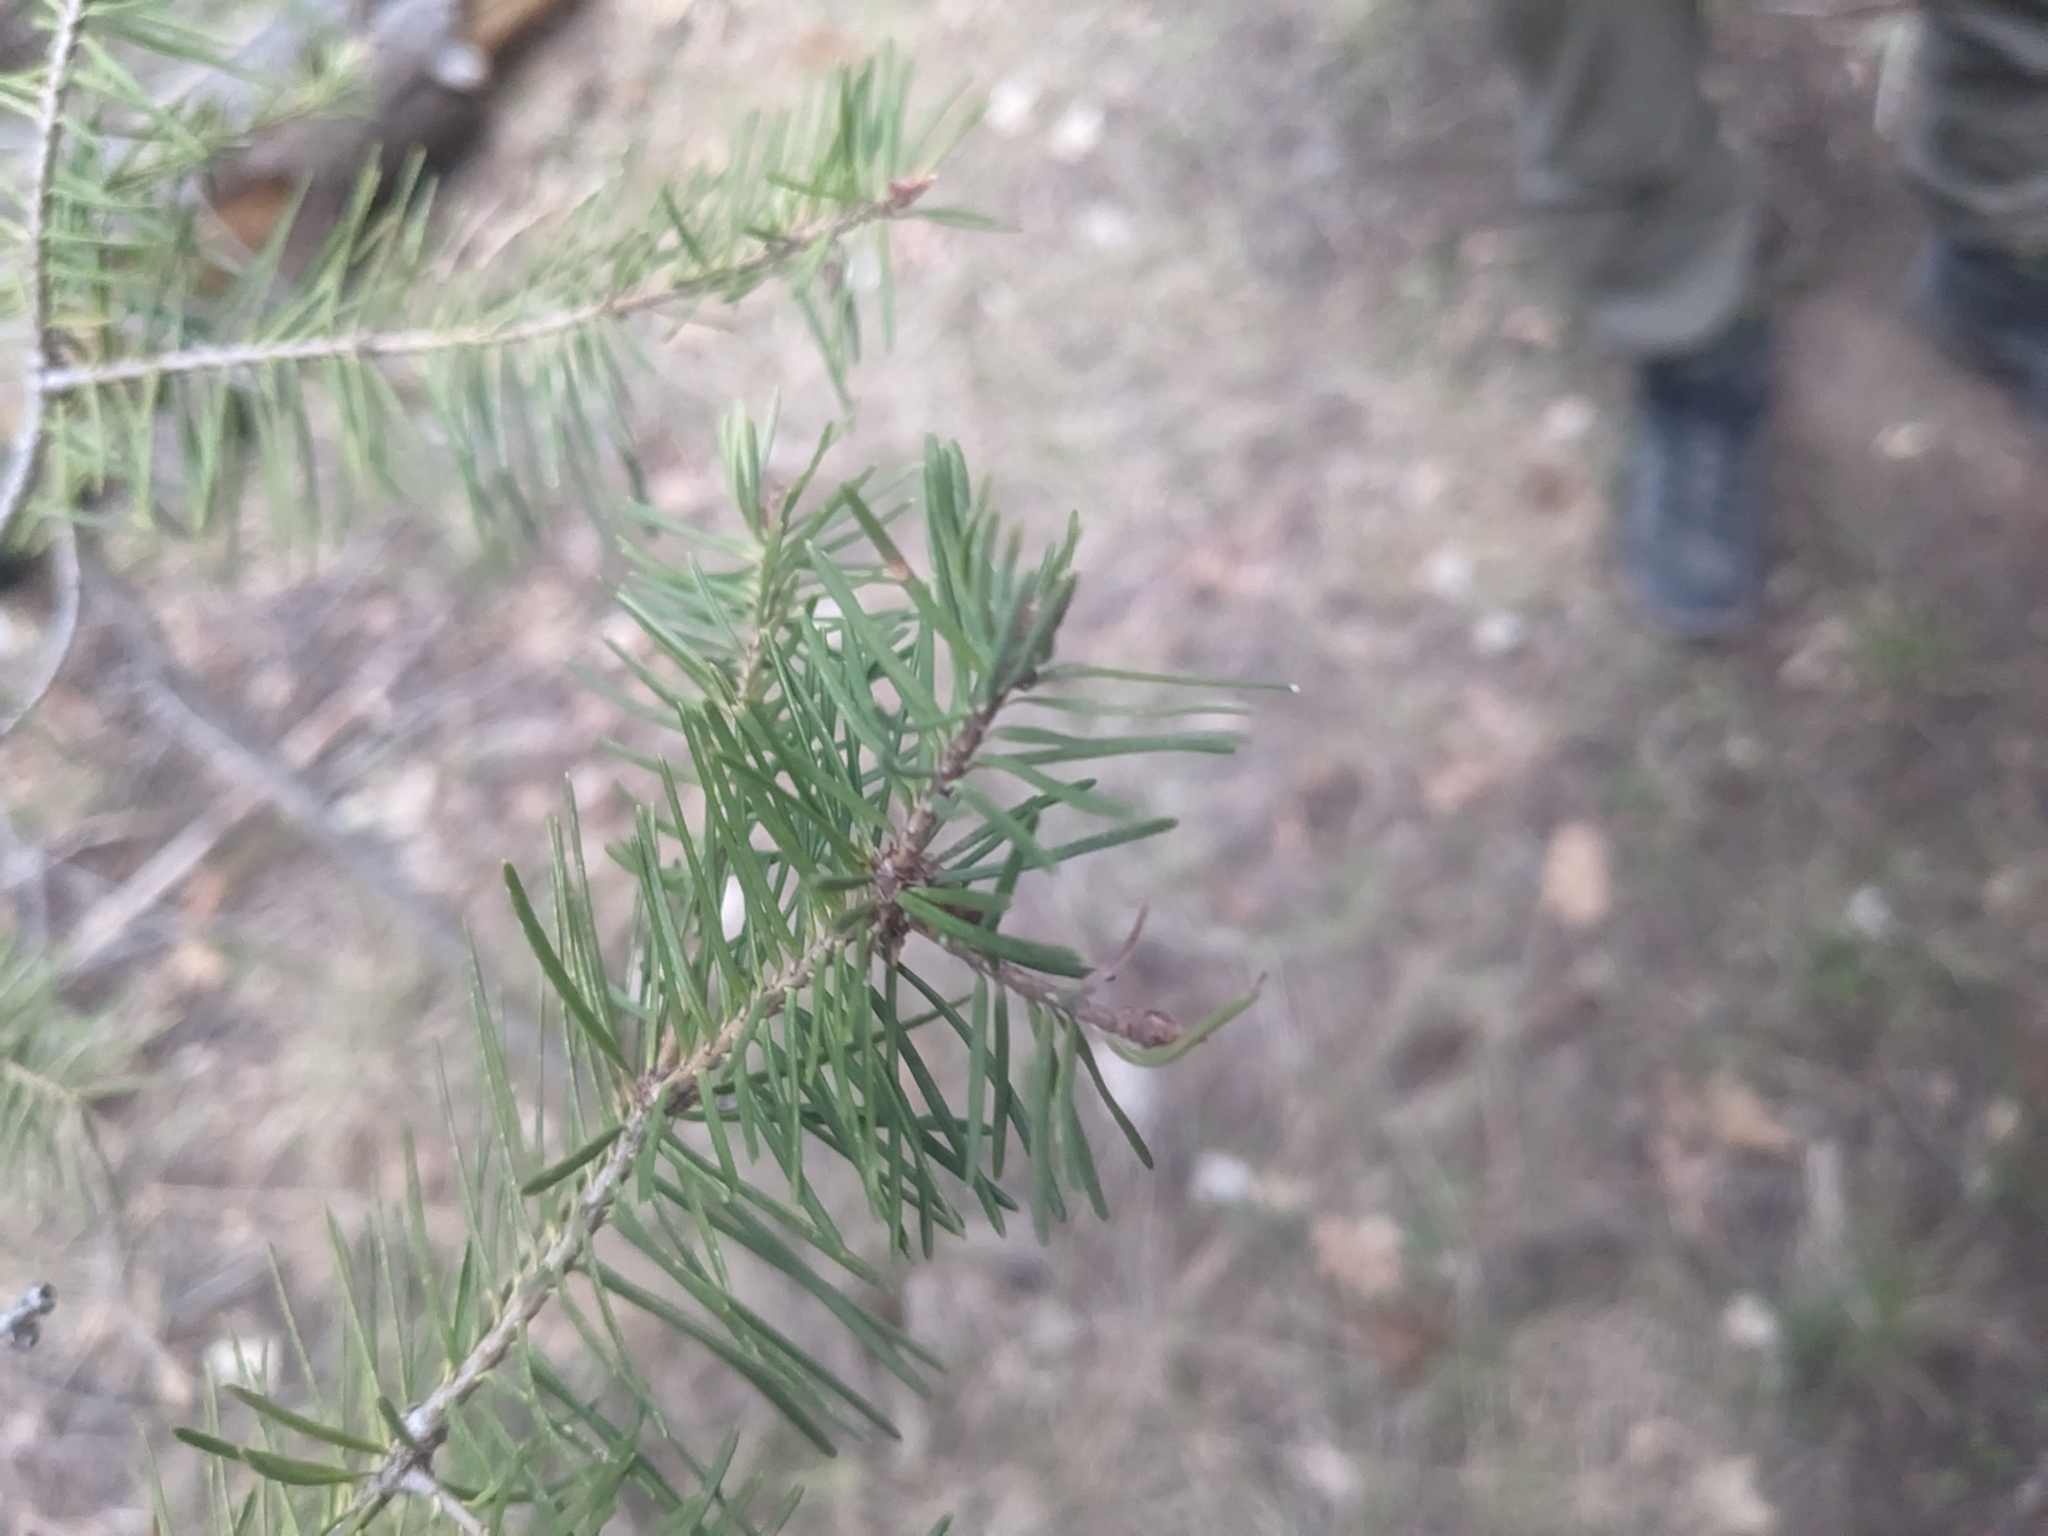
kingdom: Plantae
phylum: Tracheophyta
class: Pinopsida
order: Pinales
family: Pinaceae
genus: Pseudotsuga
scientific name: Pseudotsuga menziesii
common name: Douglas fir
